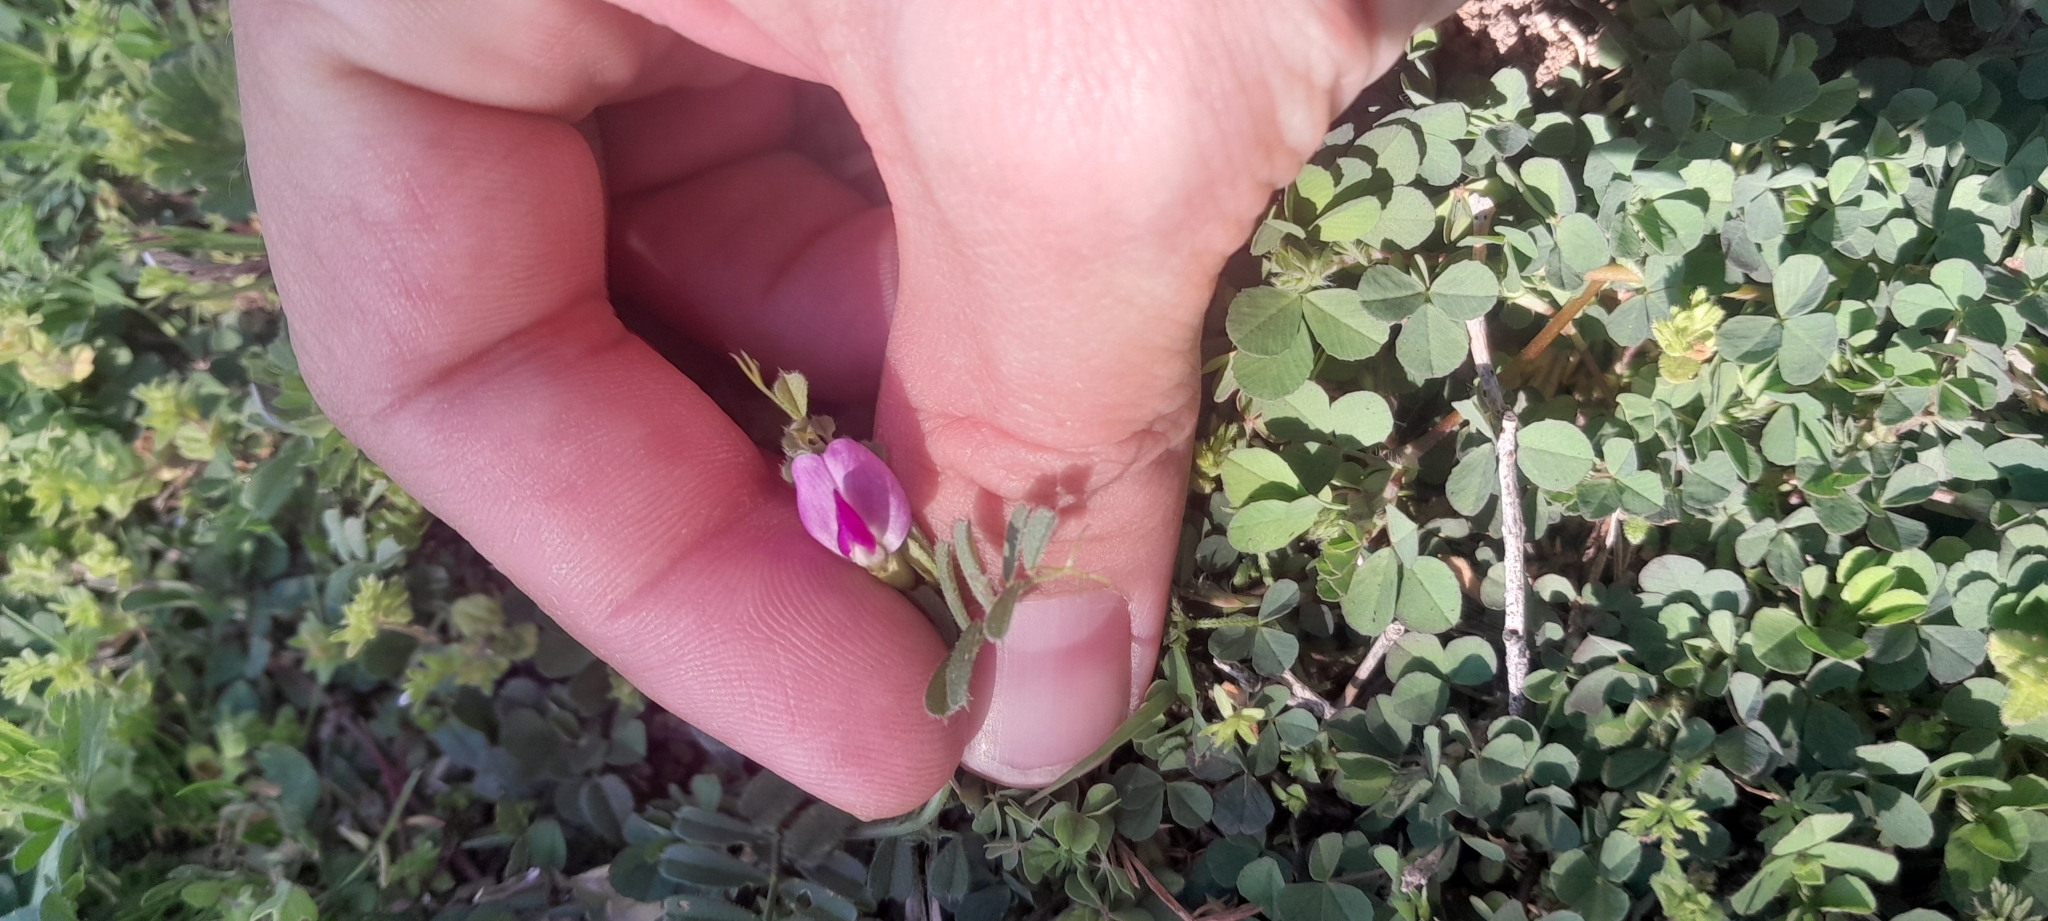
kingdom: Plantae
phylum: Tracheophyta
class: Magnoliopsida
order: Fabales
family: Fabaceae
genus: Vicia
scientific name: Vicia sativa
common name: Garden vetch
